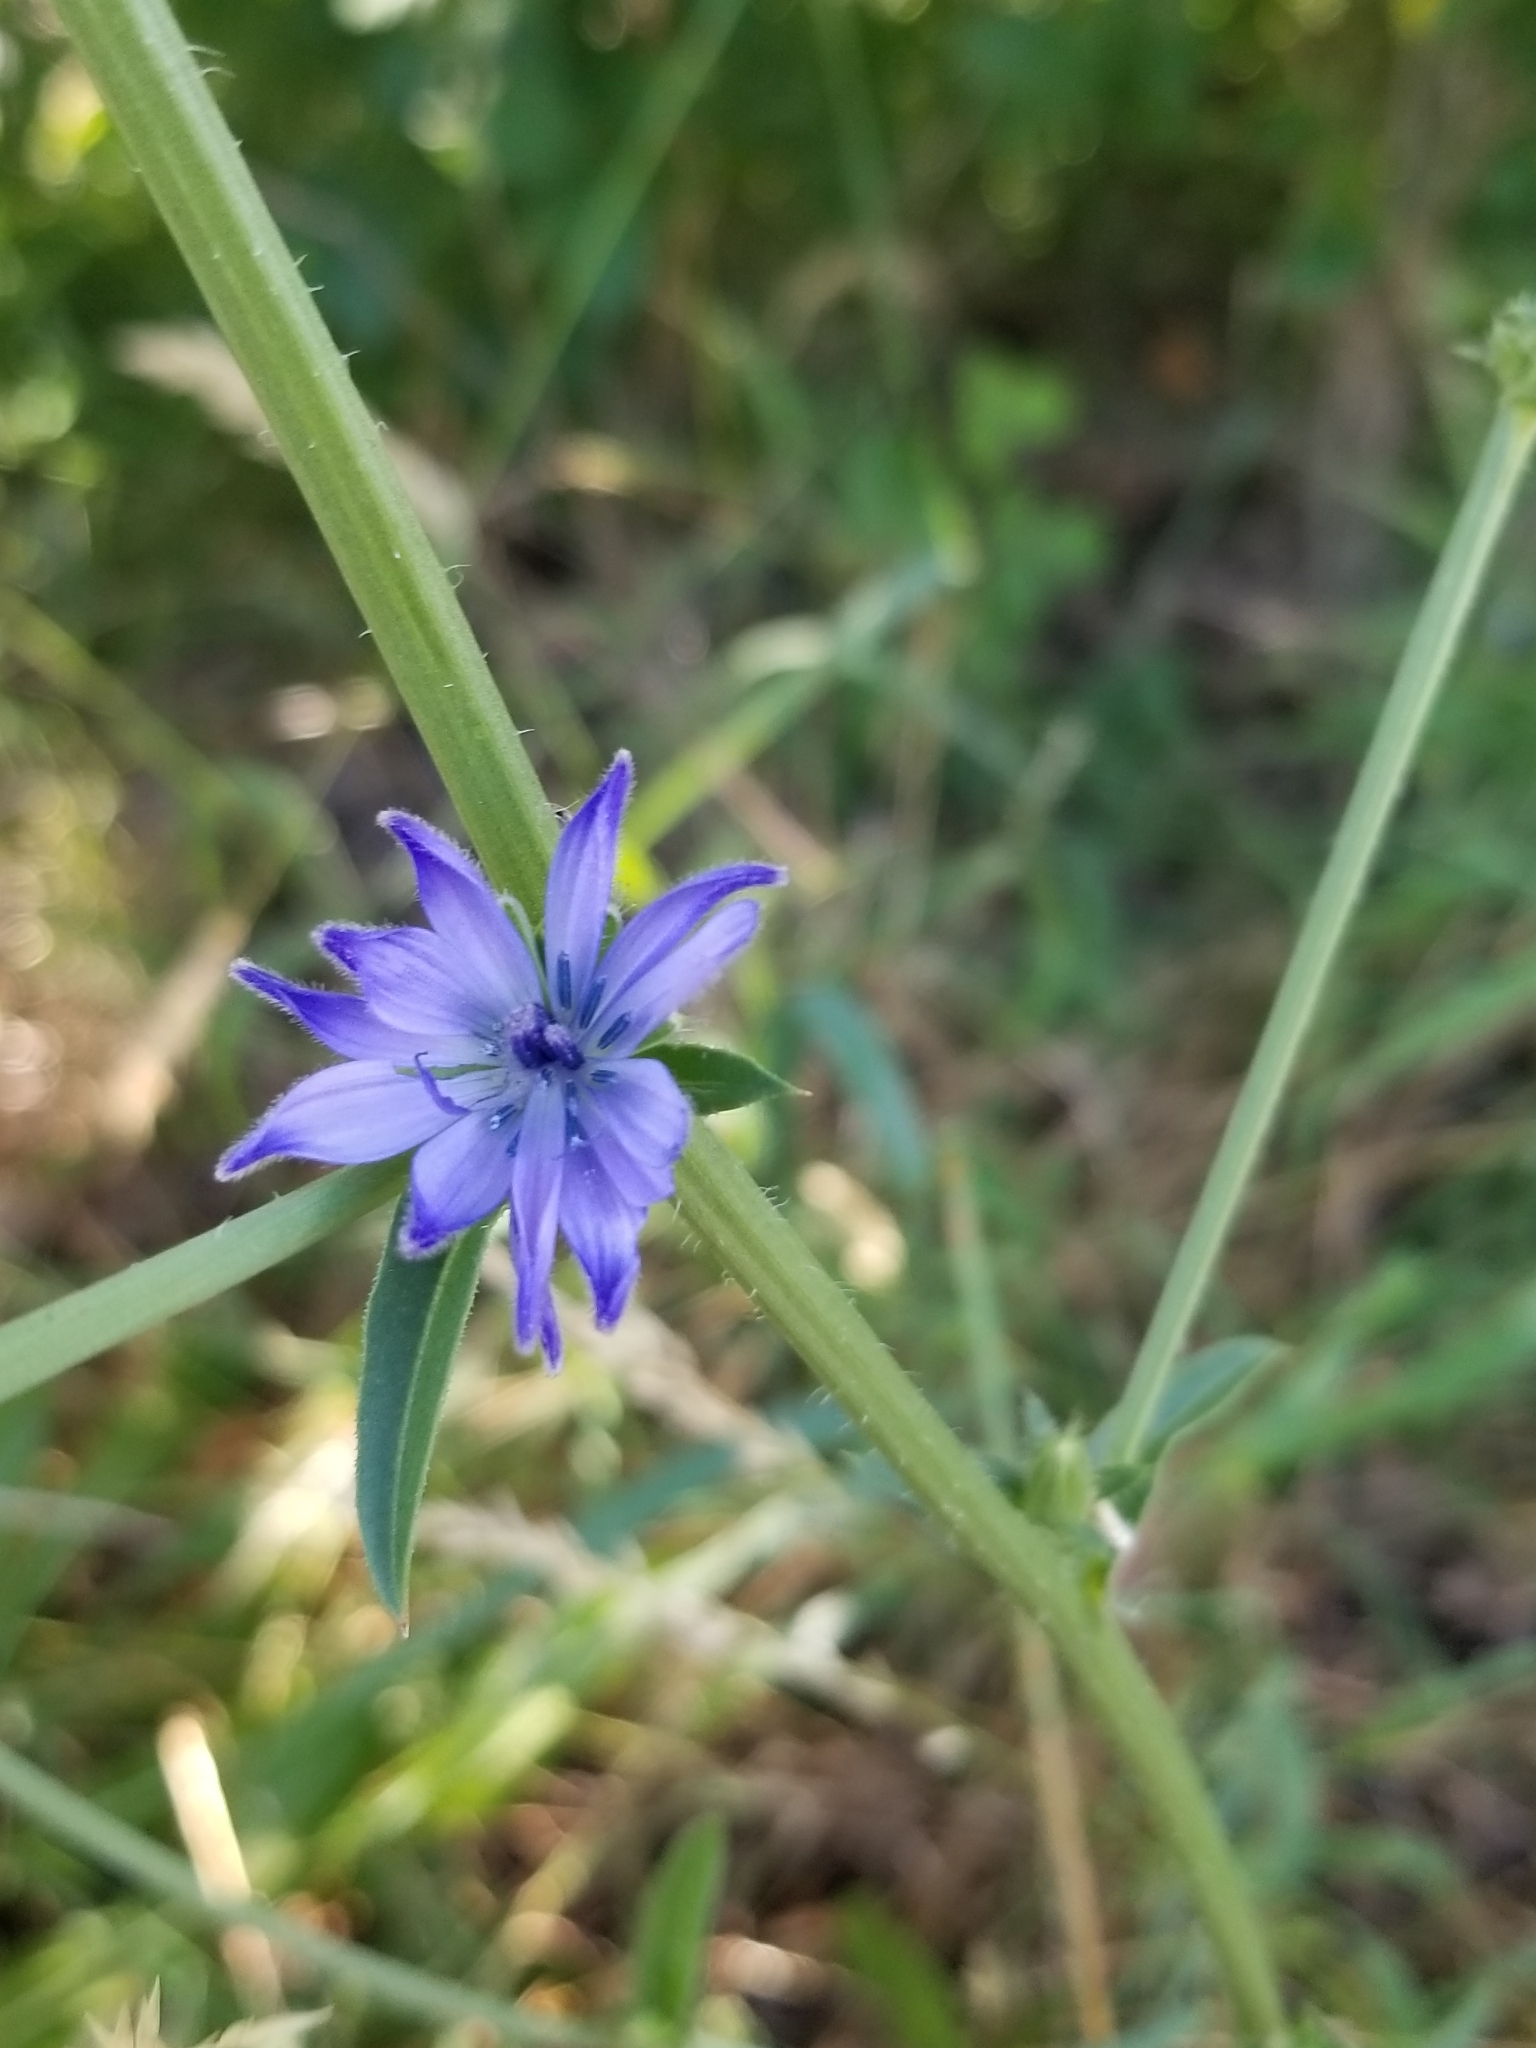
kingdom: Plantae
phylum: Tracheophyta
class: Magnoliopsida
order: Asterales
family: Asteraceae
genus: Cichorium
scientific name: Cichorium intybus
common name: Chicory
